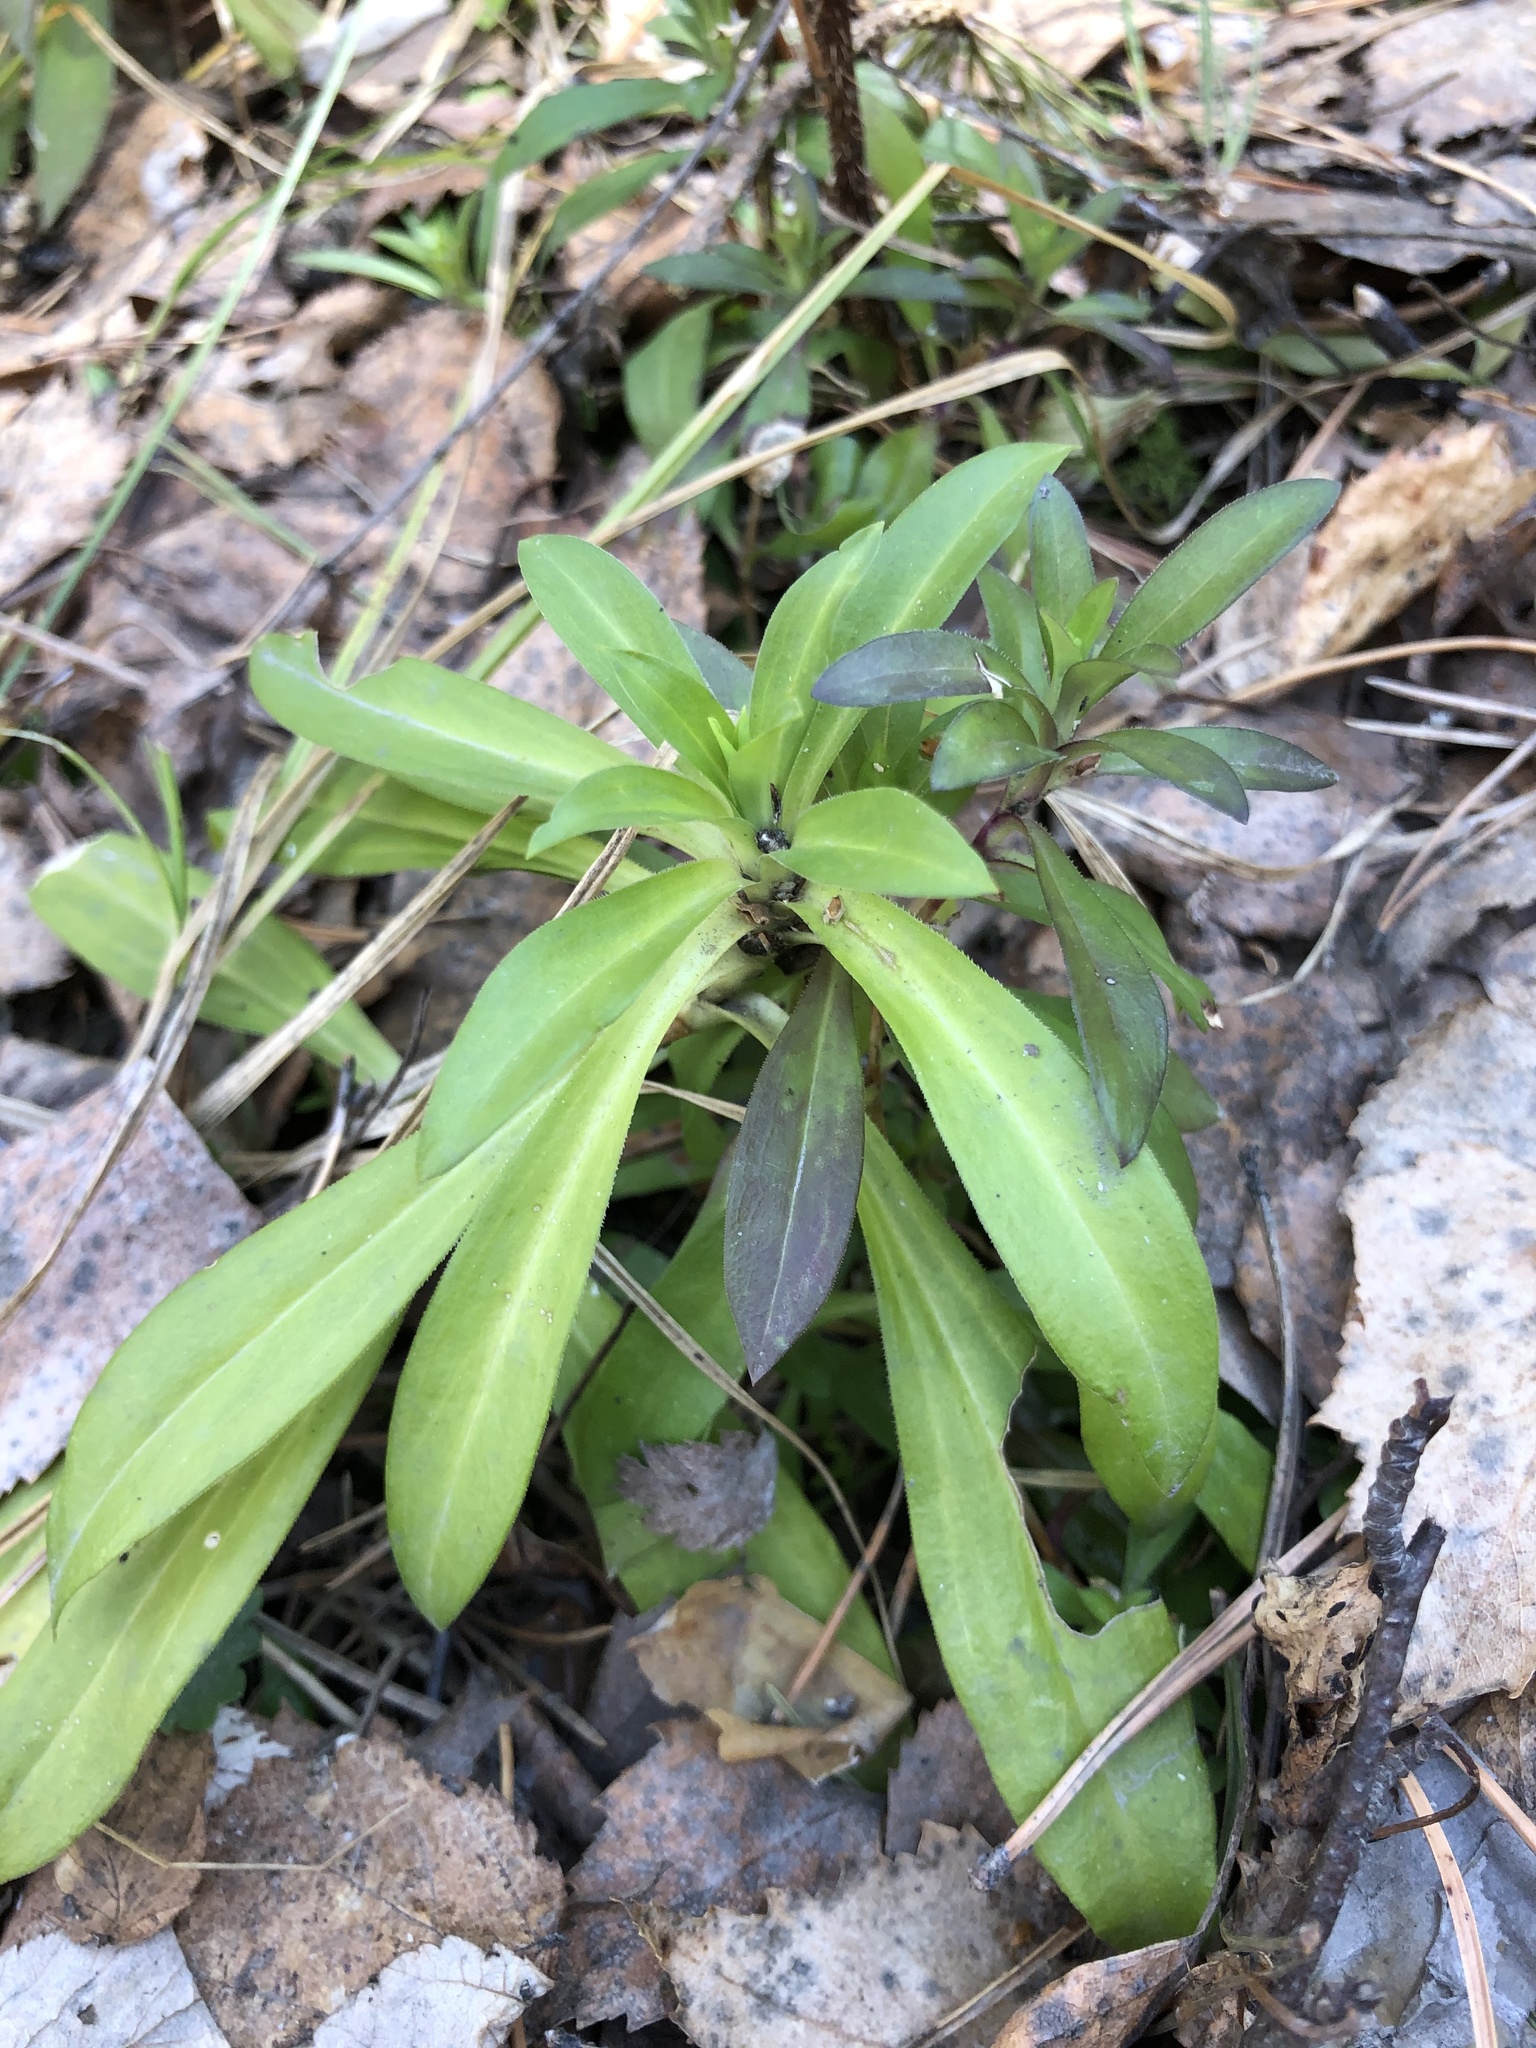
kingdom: Plantae
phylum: Tracheophyta
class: Magnoliopsida
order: Caryophyllales
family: Caryophyllaceae
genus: Saponaria
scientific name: Saponaria officinalis
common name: Soapwort
